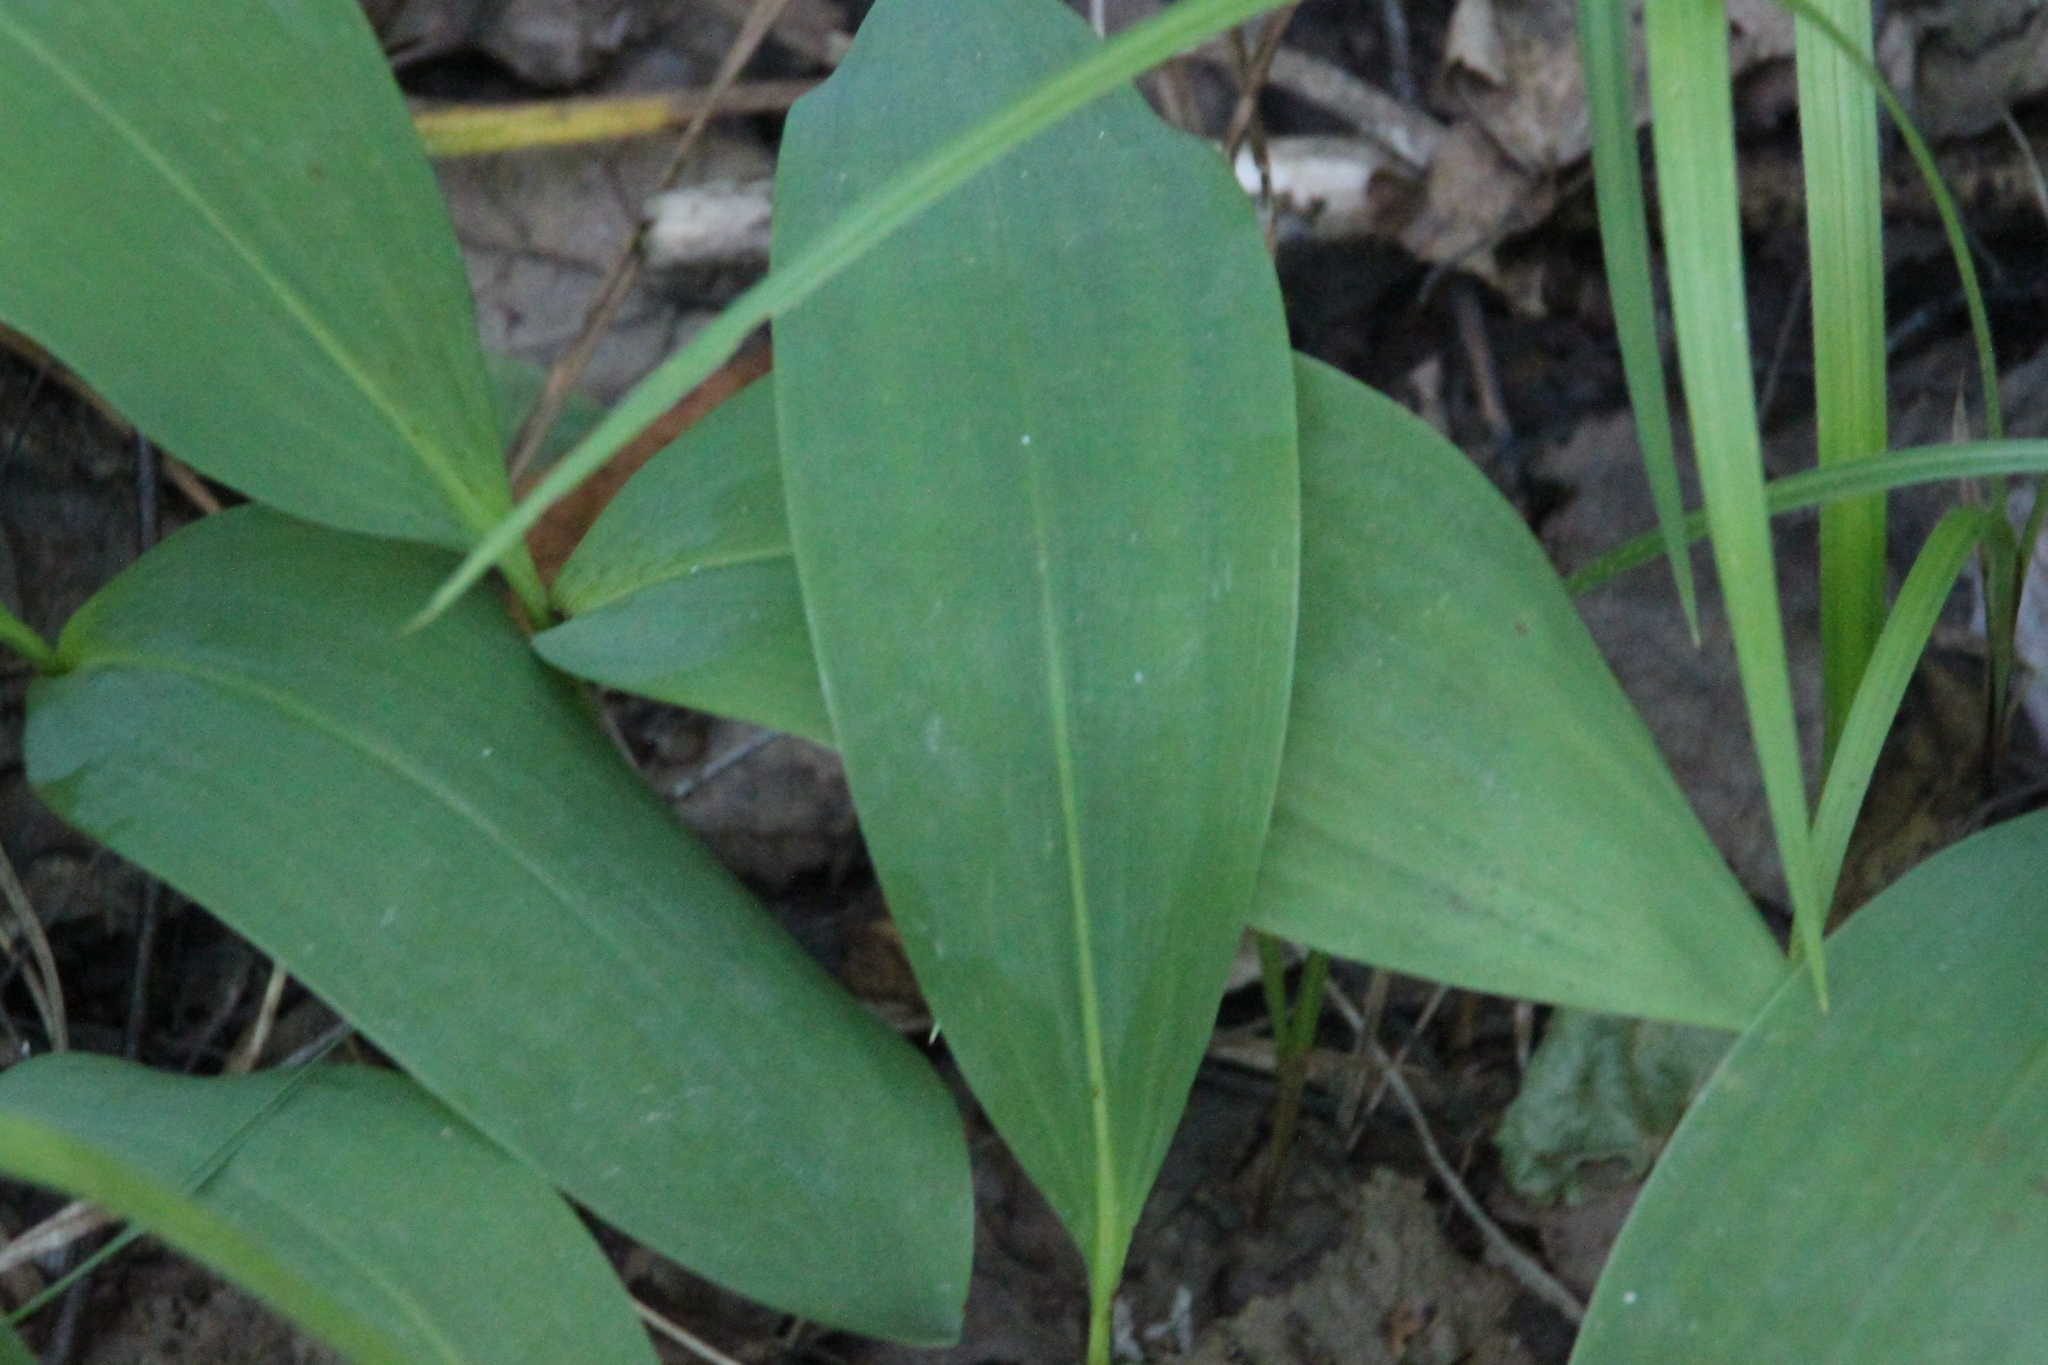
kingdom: Plantae
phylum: Tracheophyta
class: Liliopsida
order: Asparagales
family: Asparagaceae
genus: Convallaria
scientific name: Convallaria majalis
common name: Lily-of-the-valley
